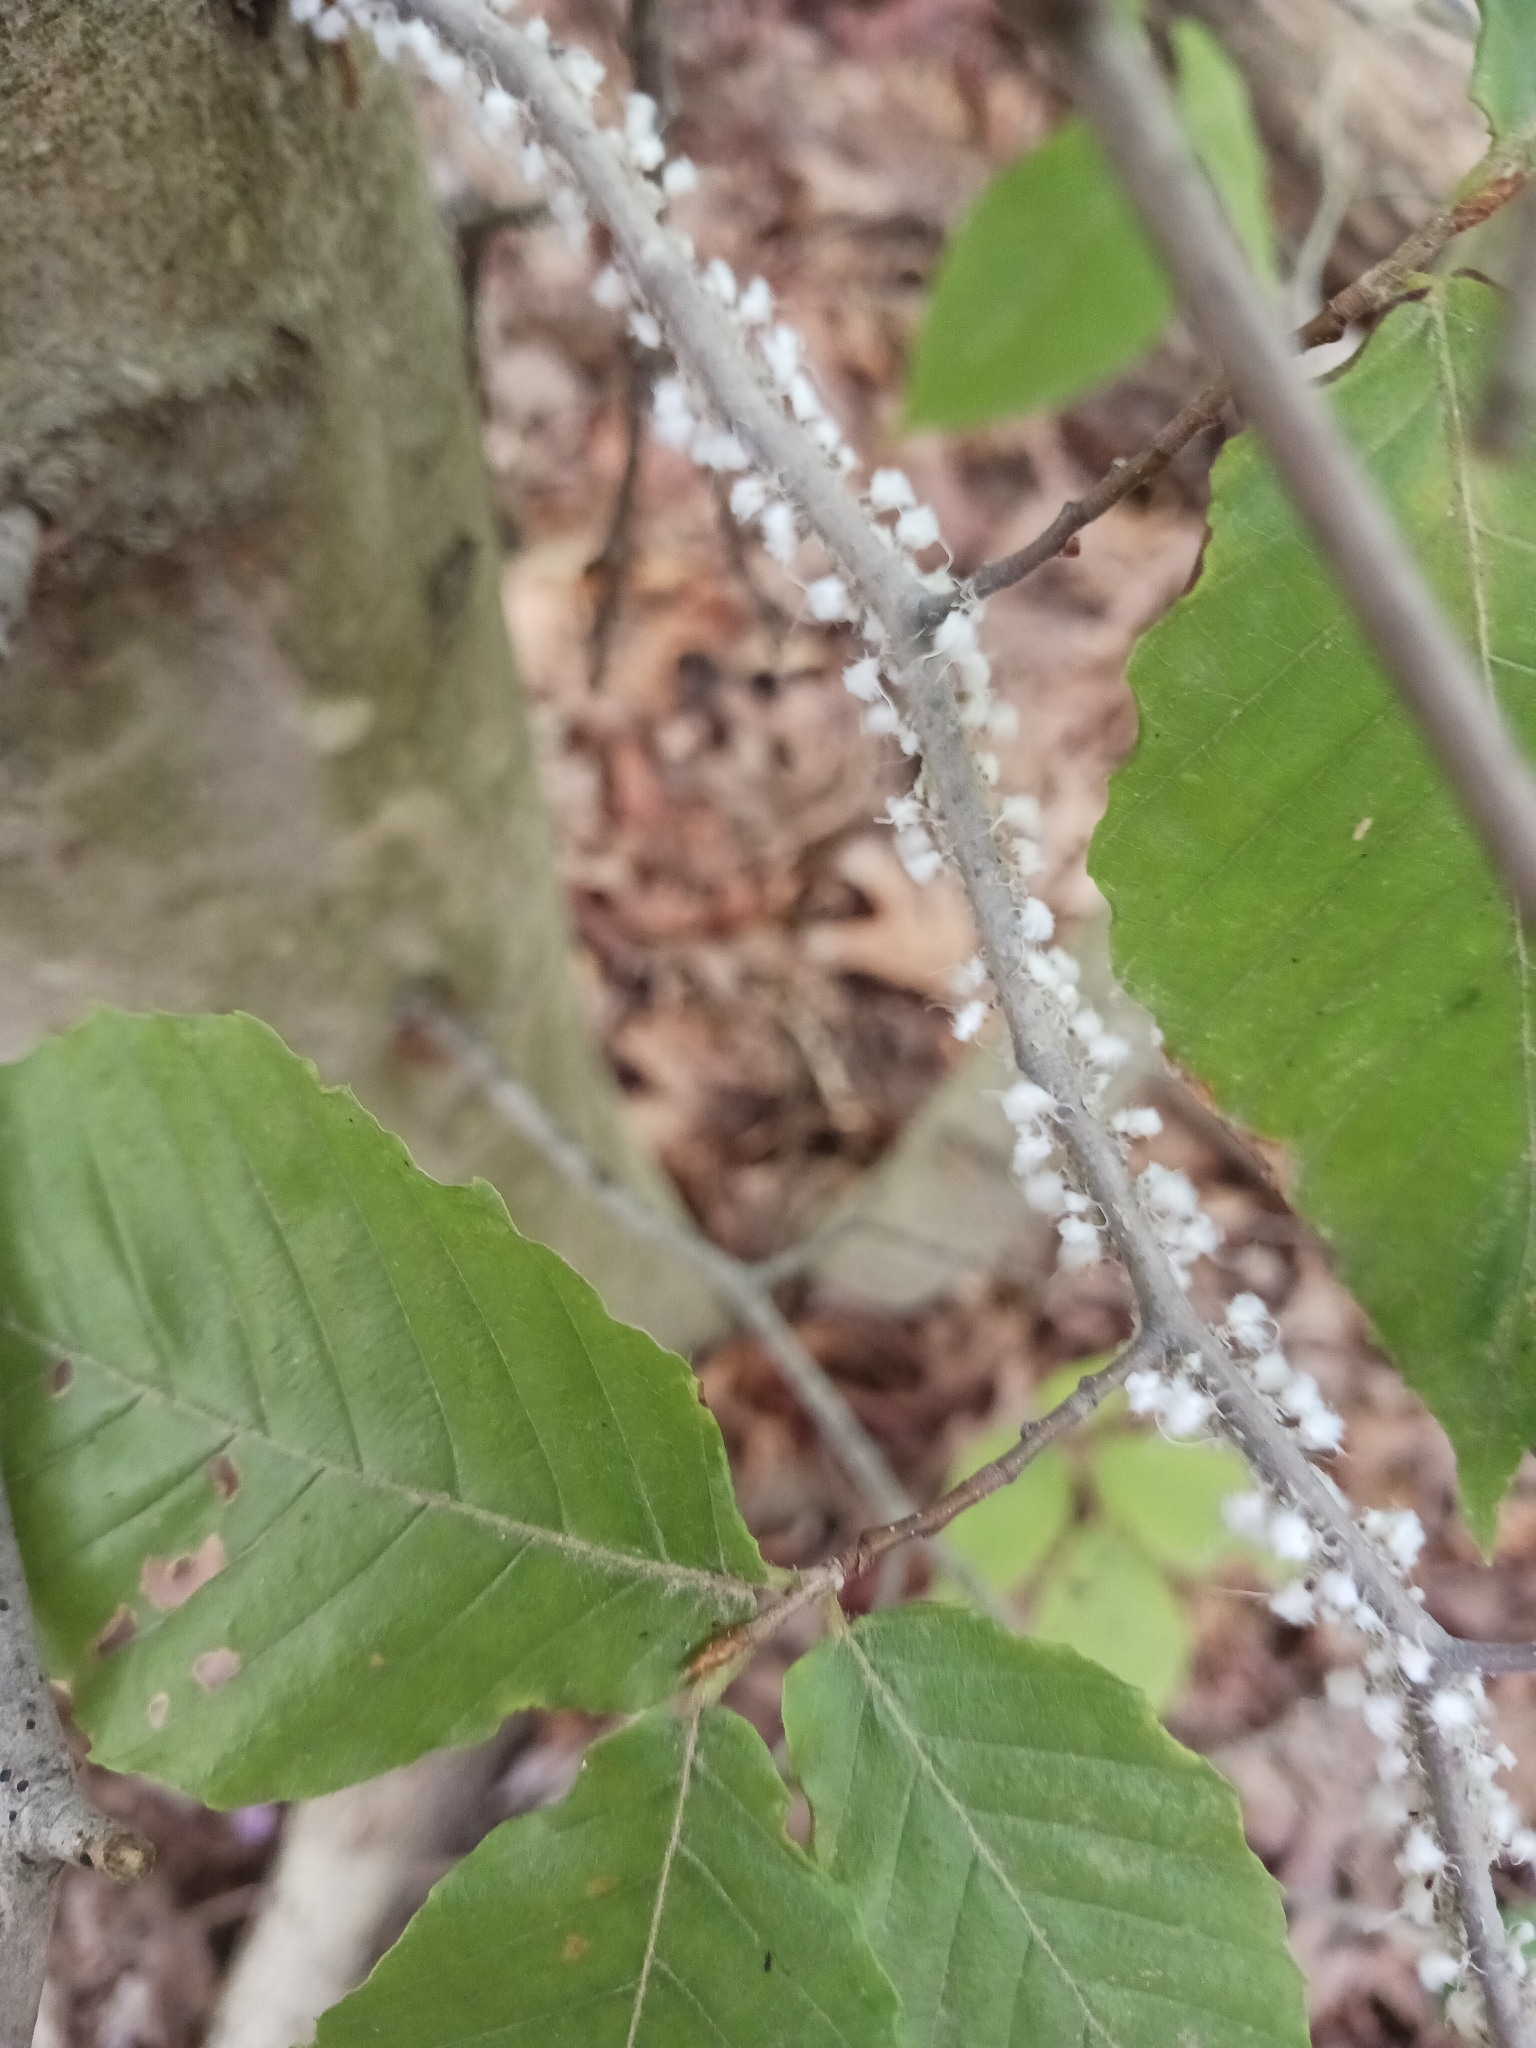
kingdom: Animalia
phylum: Arthropoda
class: Insecta
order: Hemiptera
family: Aphididae
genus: Grylloprociphilus
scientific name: Grylloprociphilus imbricator
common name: Beech blight aphid
